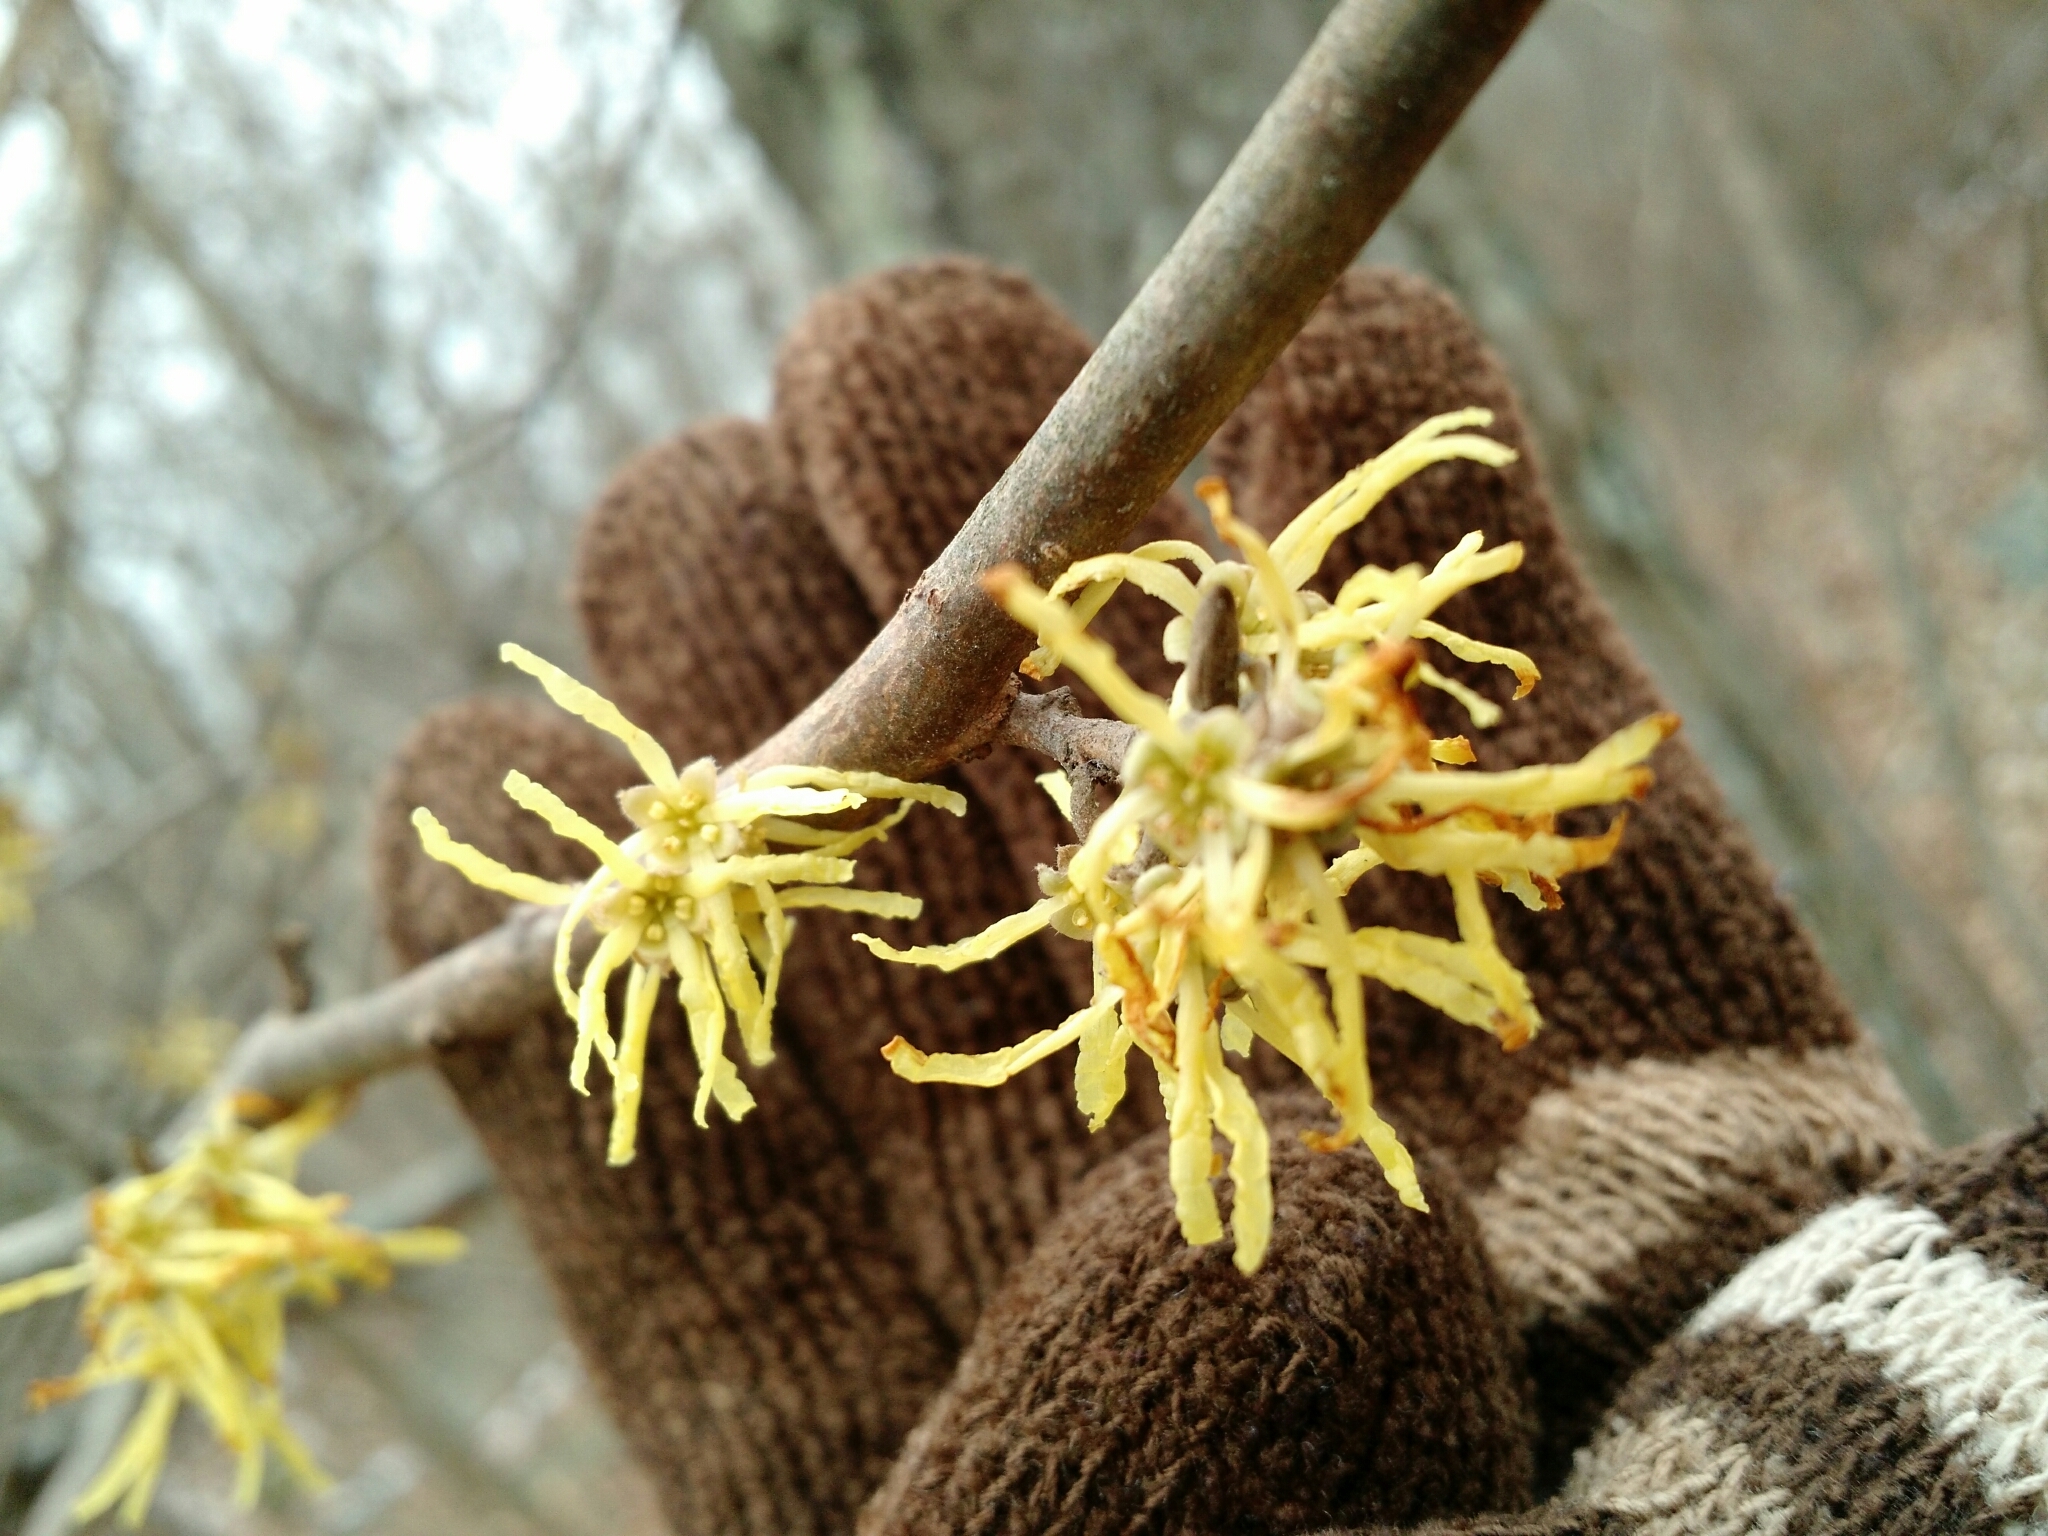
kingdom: Plantae
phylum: Tracheophyta
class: Magnoliopsida
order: Saxifragales
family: Hamamelidaceae
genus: Hamamelis
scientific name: Hamamelis virginiana
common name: Witch-hazel
